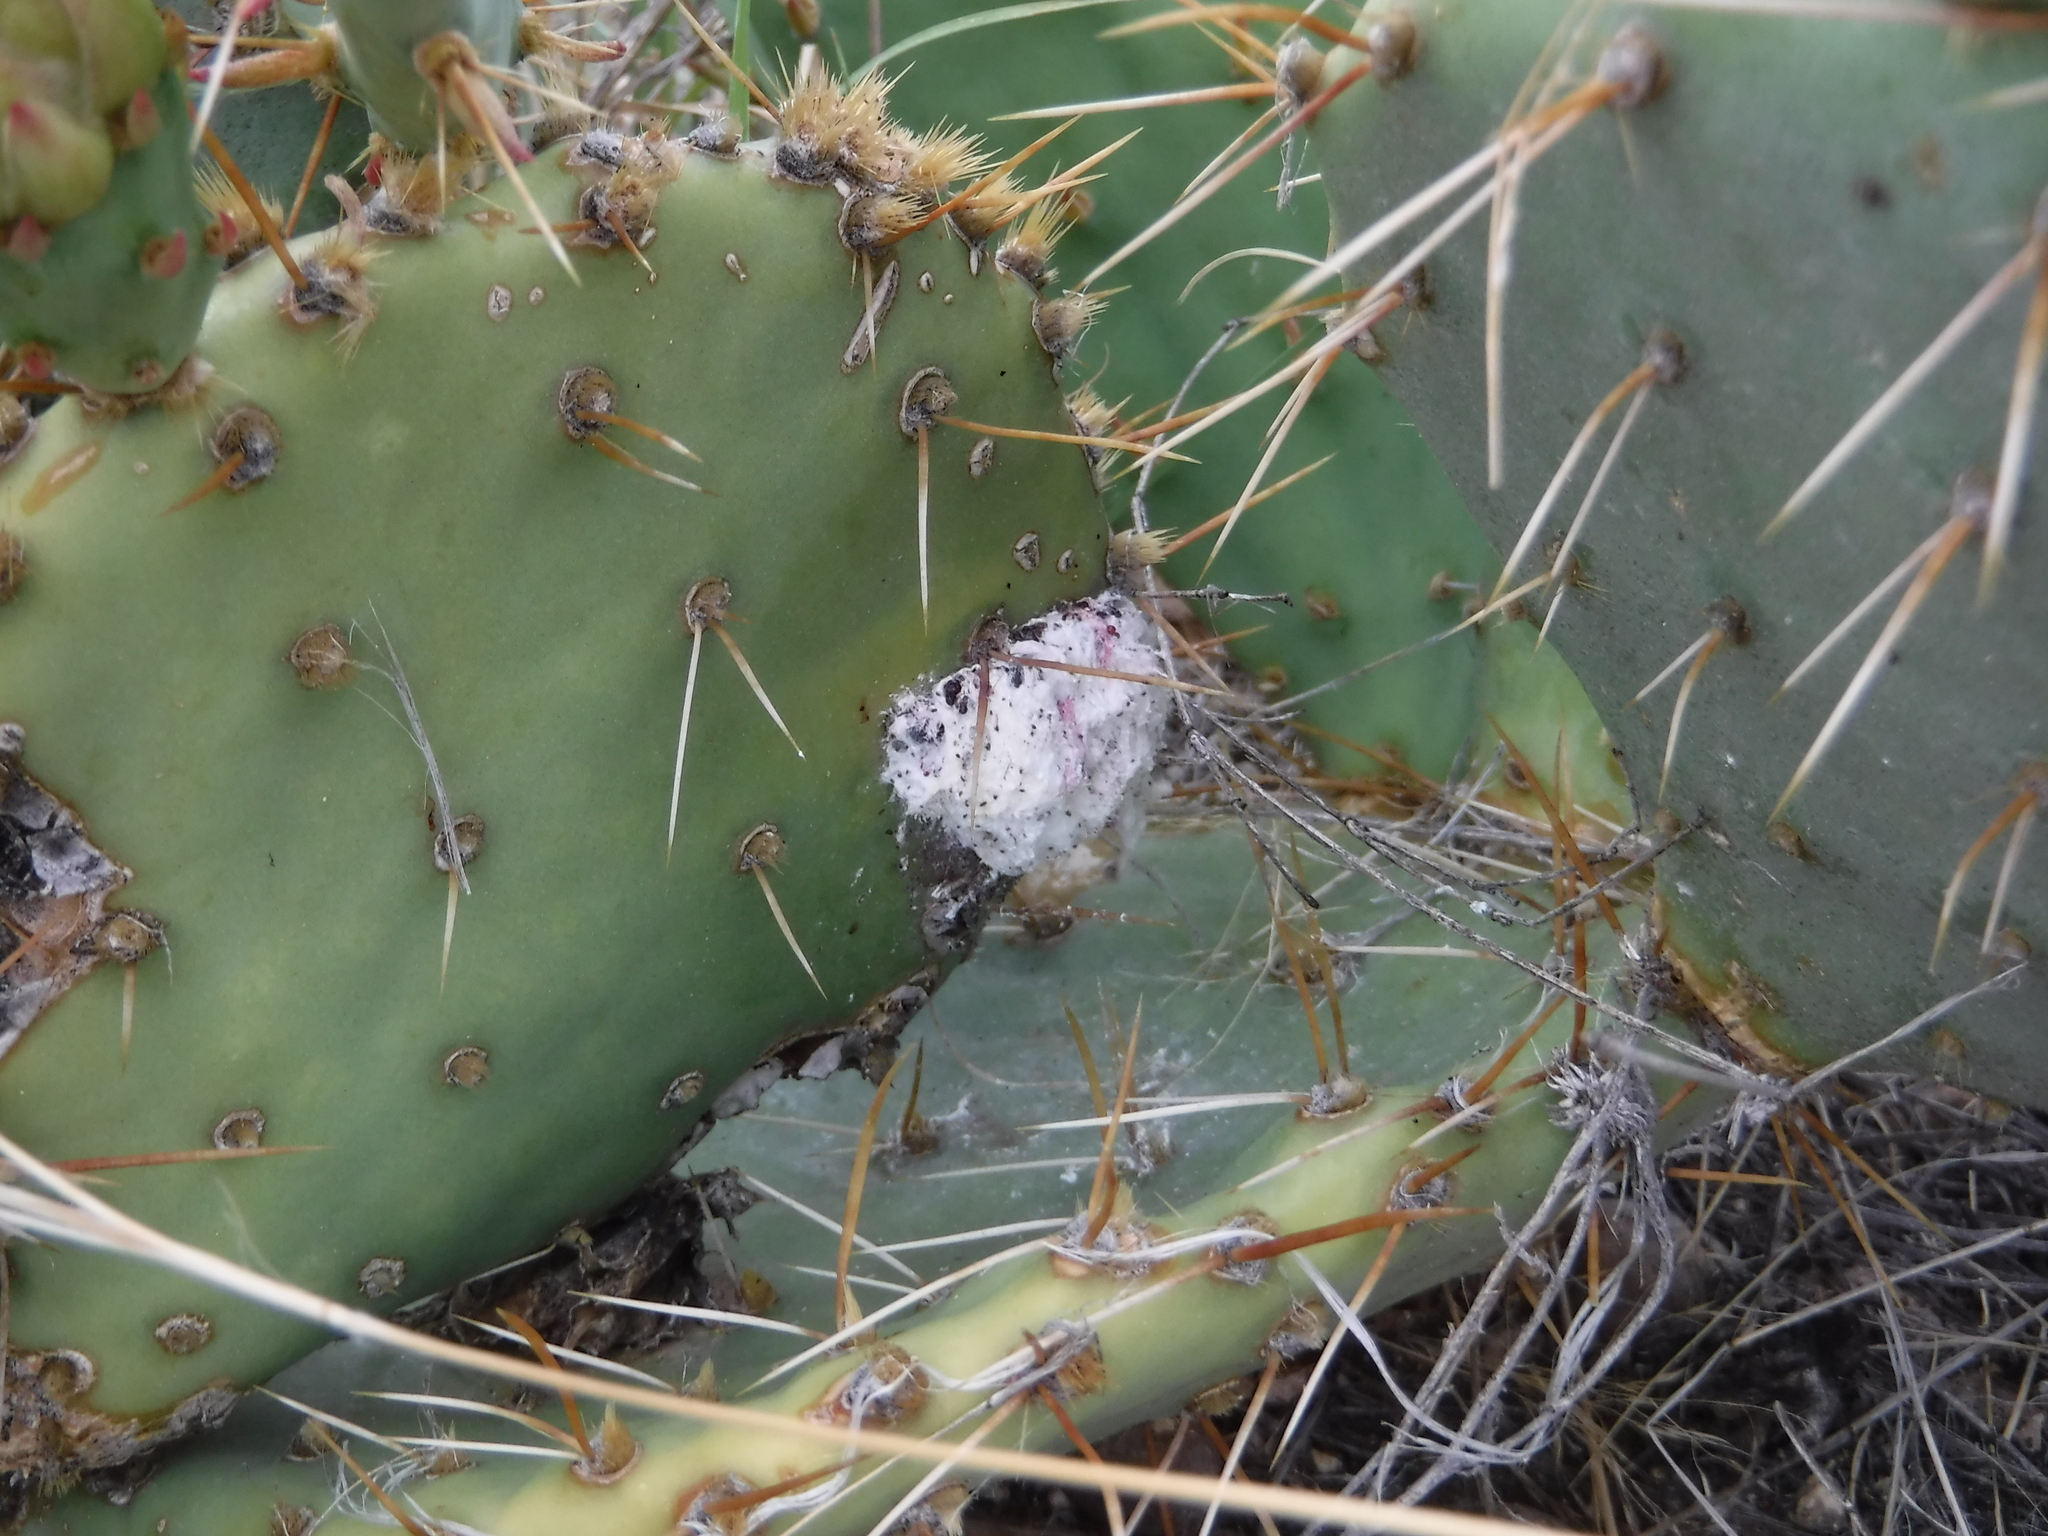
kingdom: Animalia
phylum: Arthropoda
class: Insecta
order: Hemiptera
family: Dactylopiidae
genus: Dactylopius
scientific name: Dactylopius
